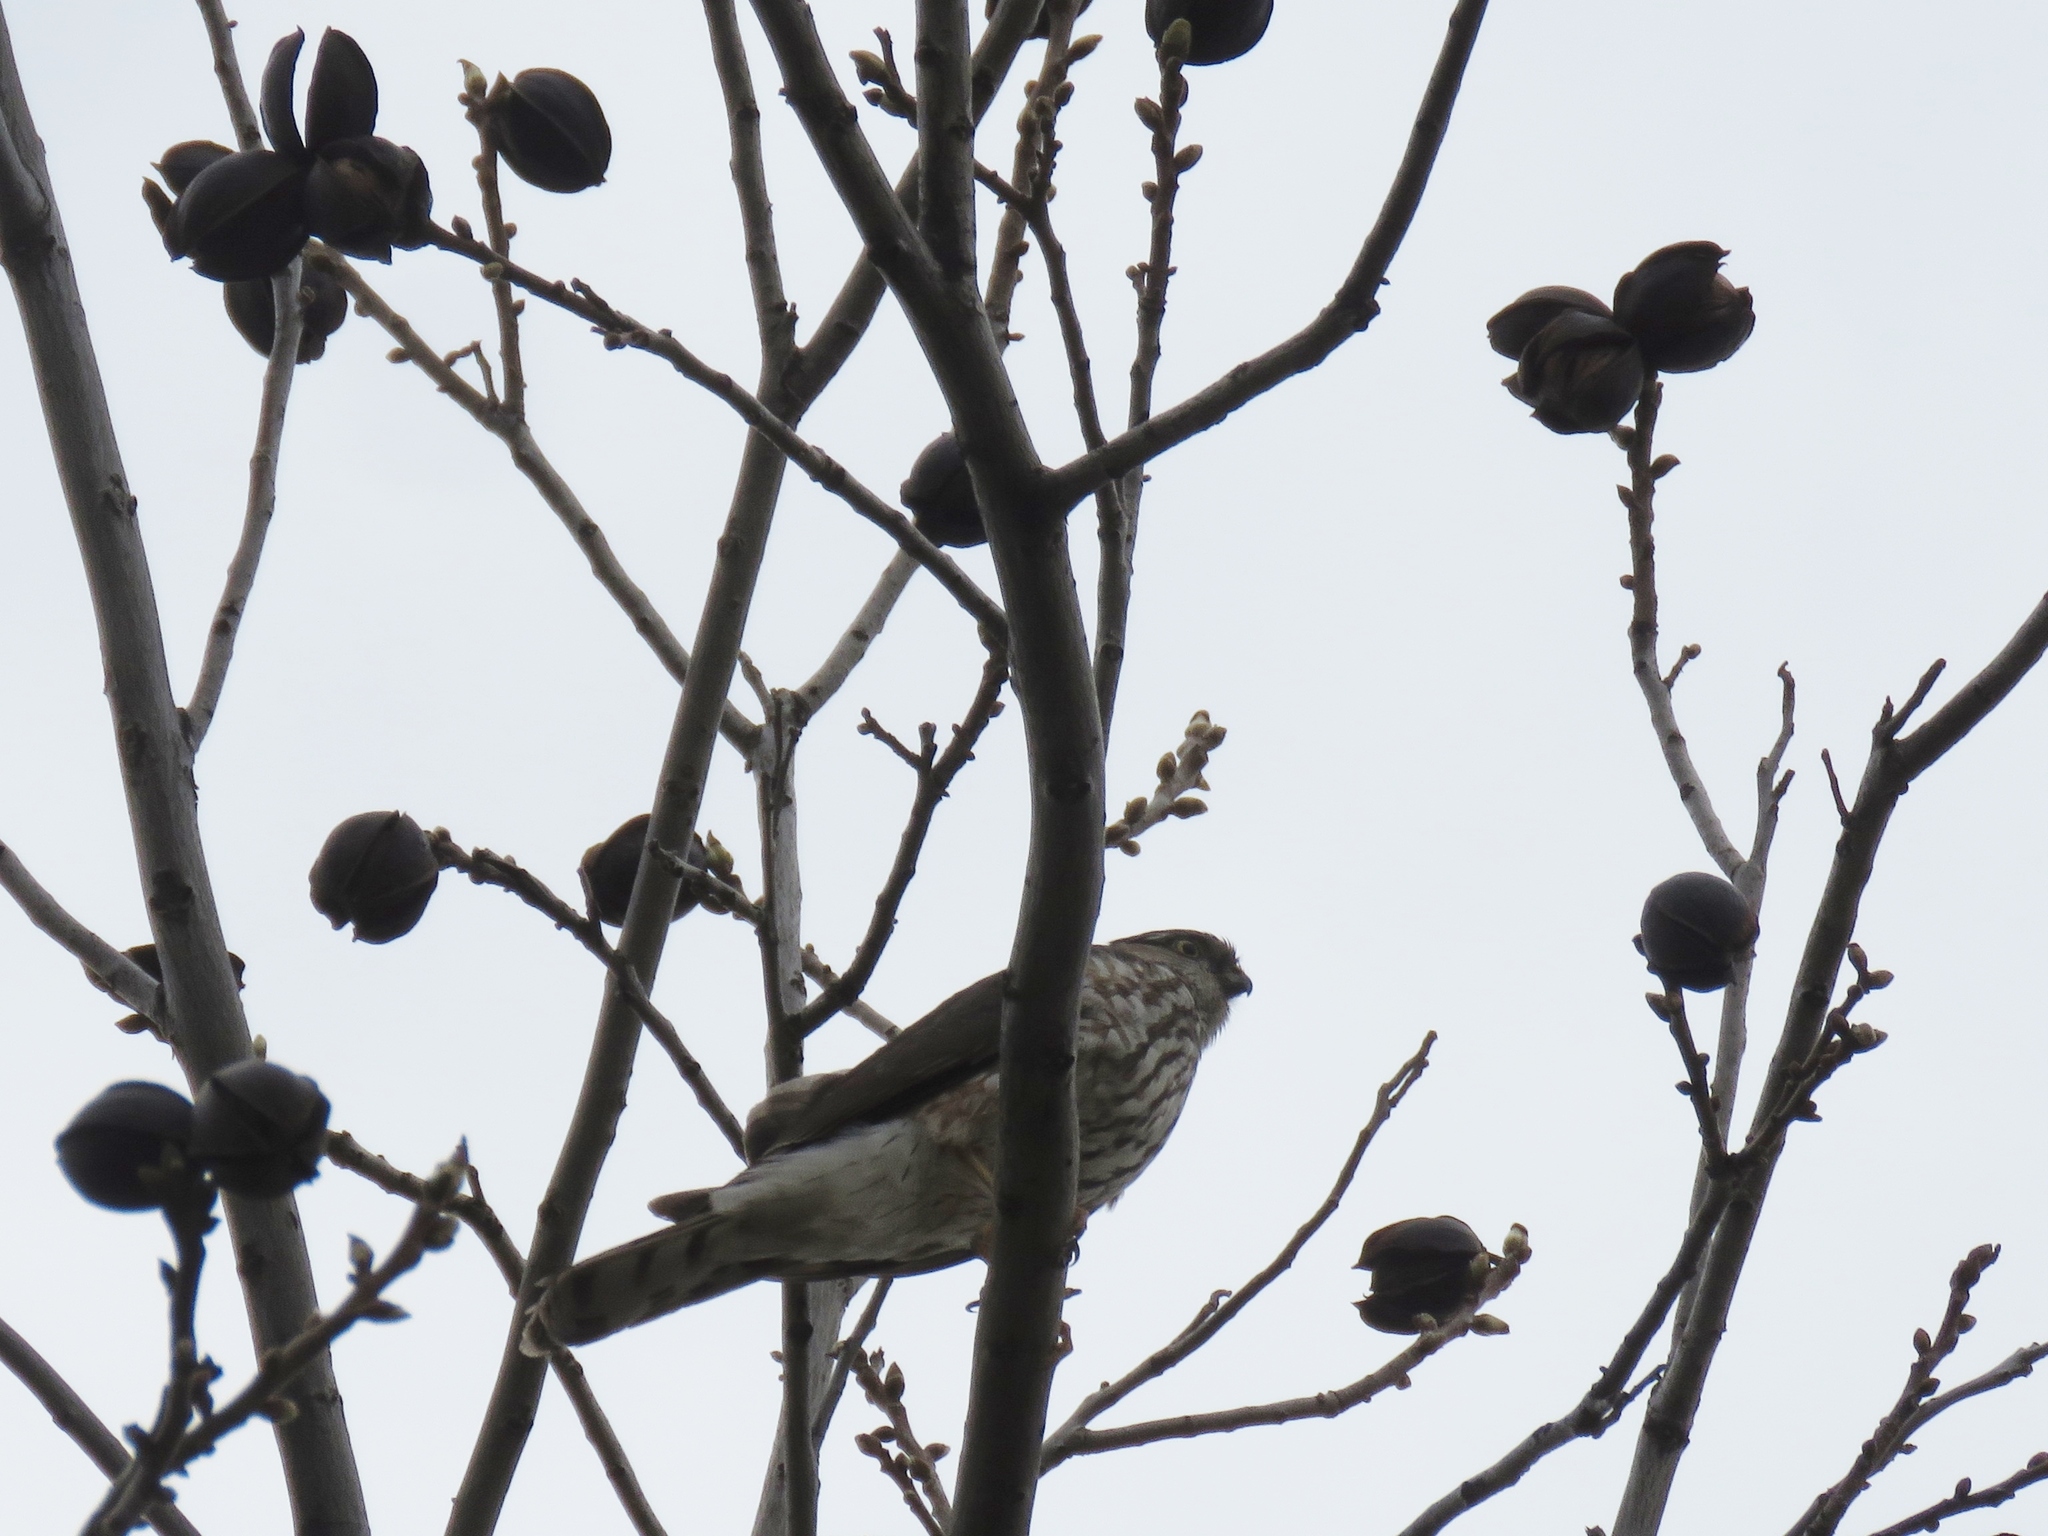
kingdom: Animalia
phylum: Chordata
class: Aves
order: Accipitriformes
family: Accipitridae
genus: Accipiter
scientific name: Accipiter striatus
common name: Sharp-shinned hawk
